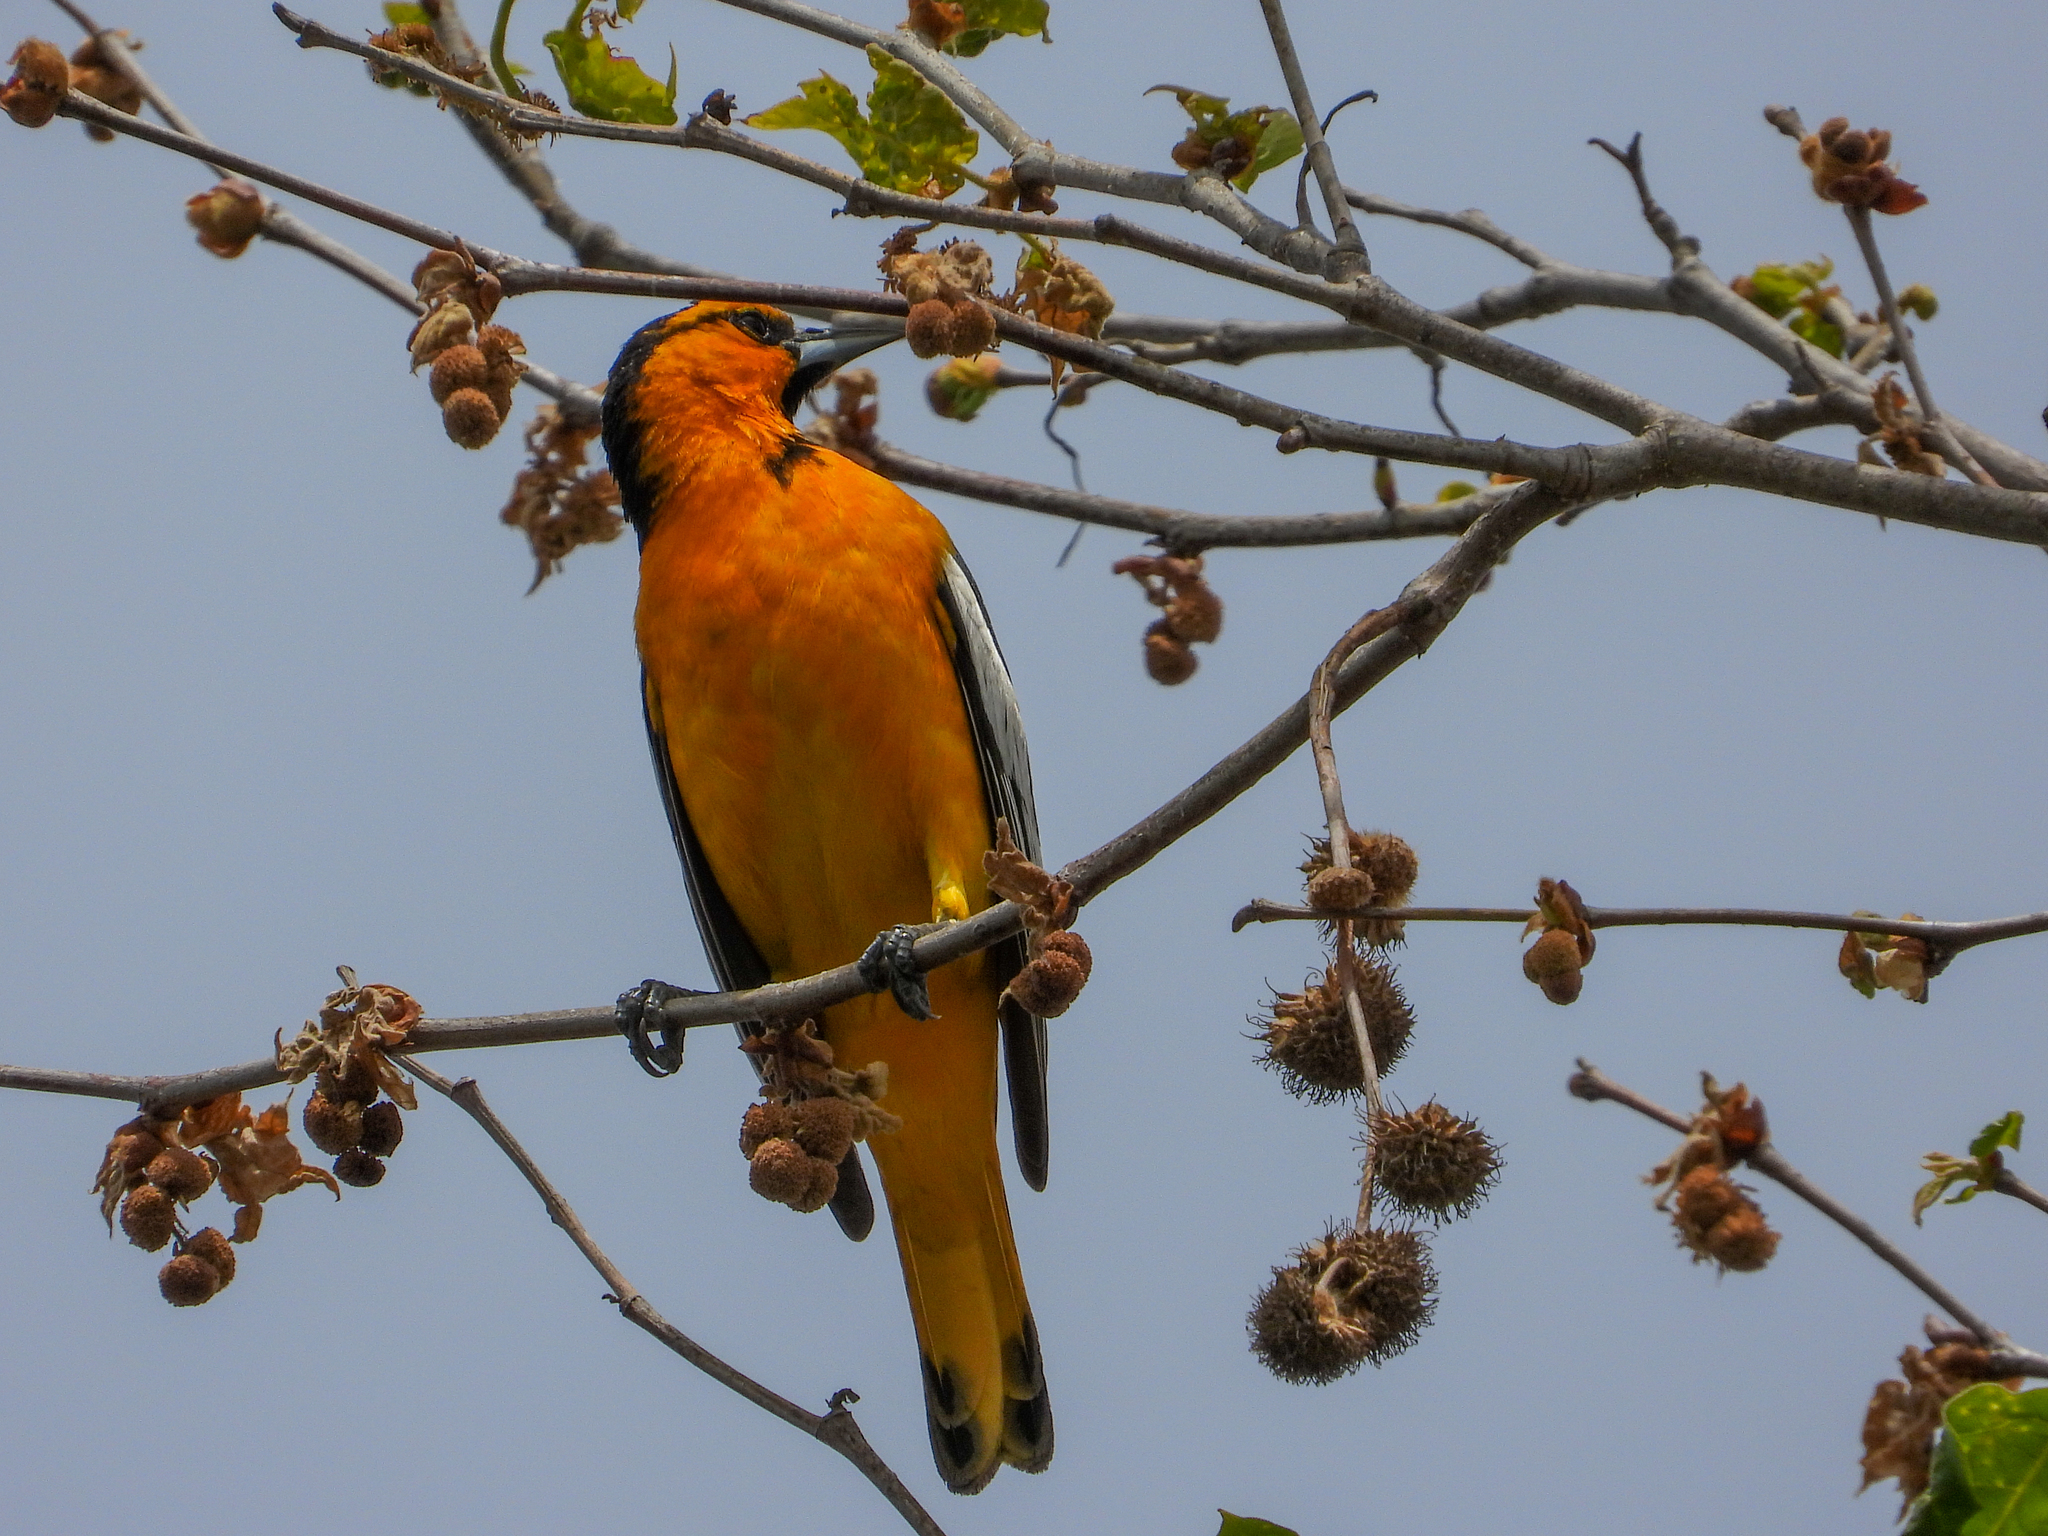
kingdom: Animalia
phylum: Chordata
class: Aves
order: Passeriformes
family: Icteridae
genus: Icterus
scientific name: Icterus bullockii
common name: Bullock's oriole
